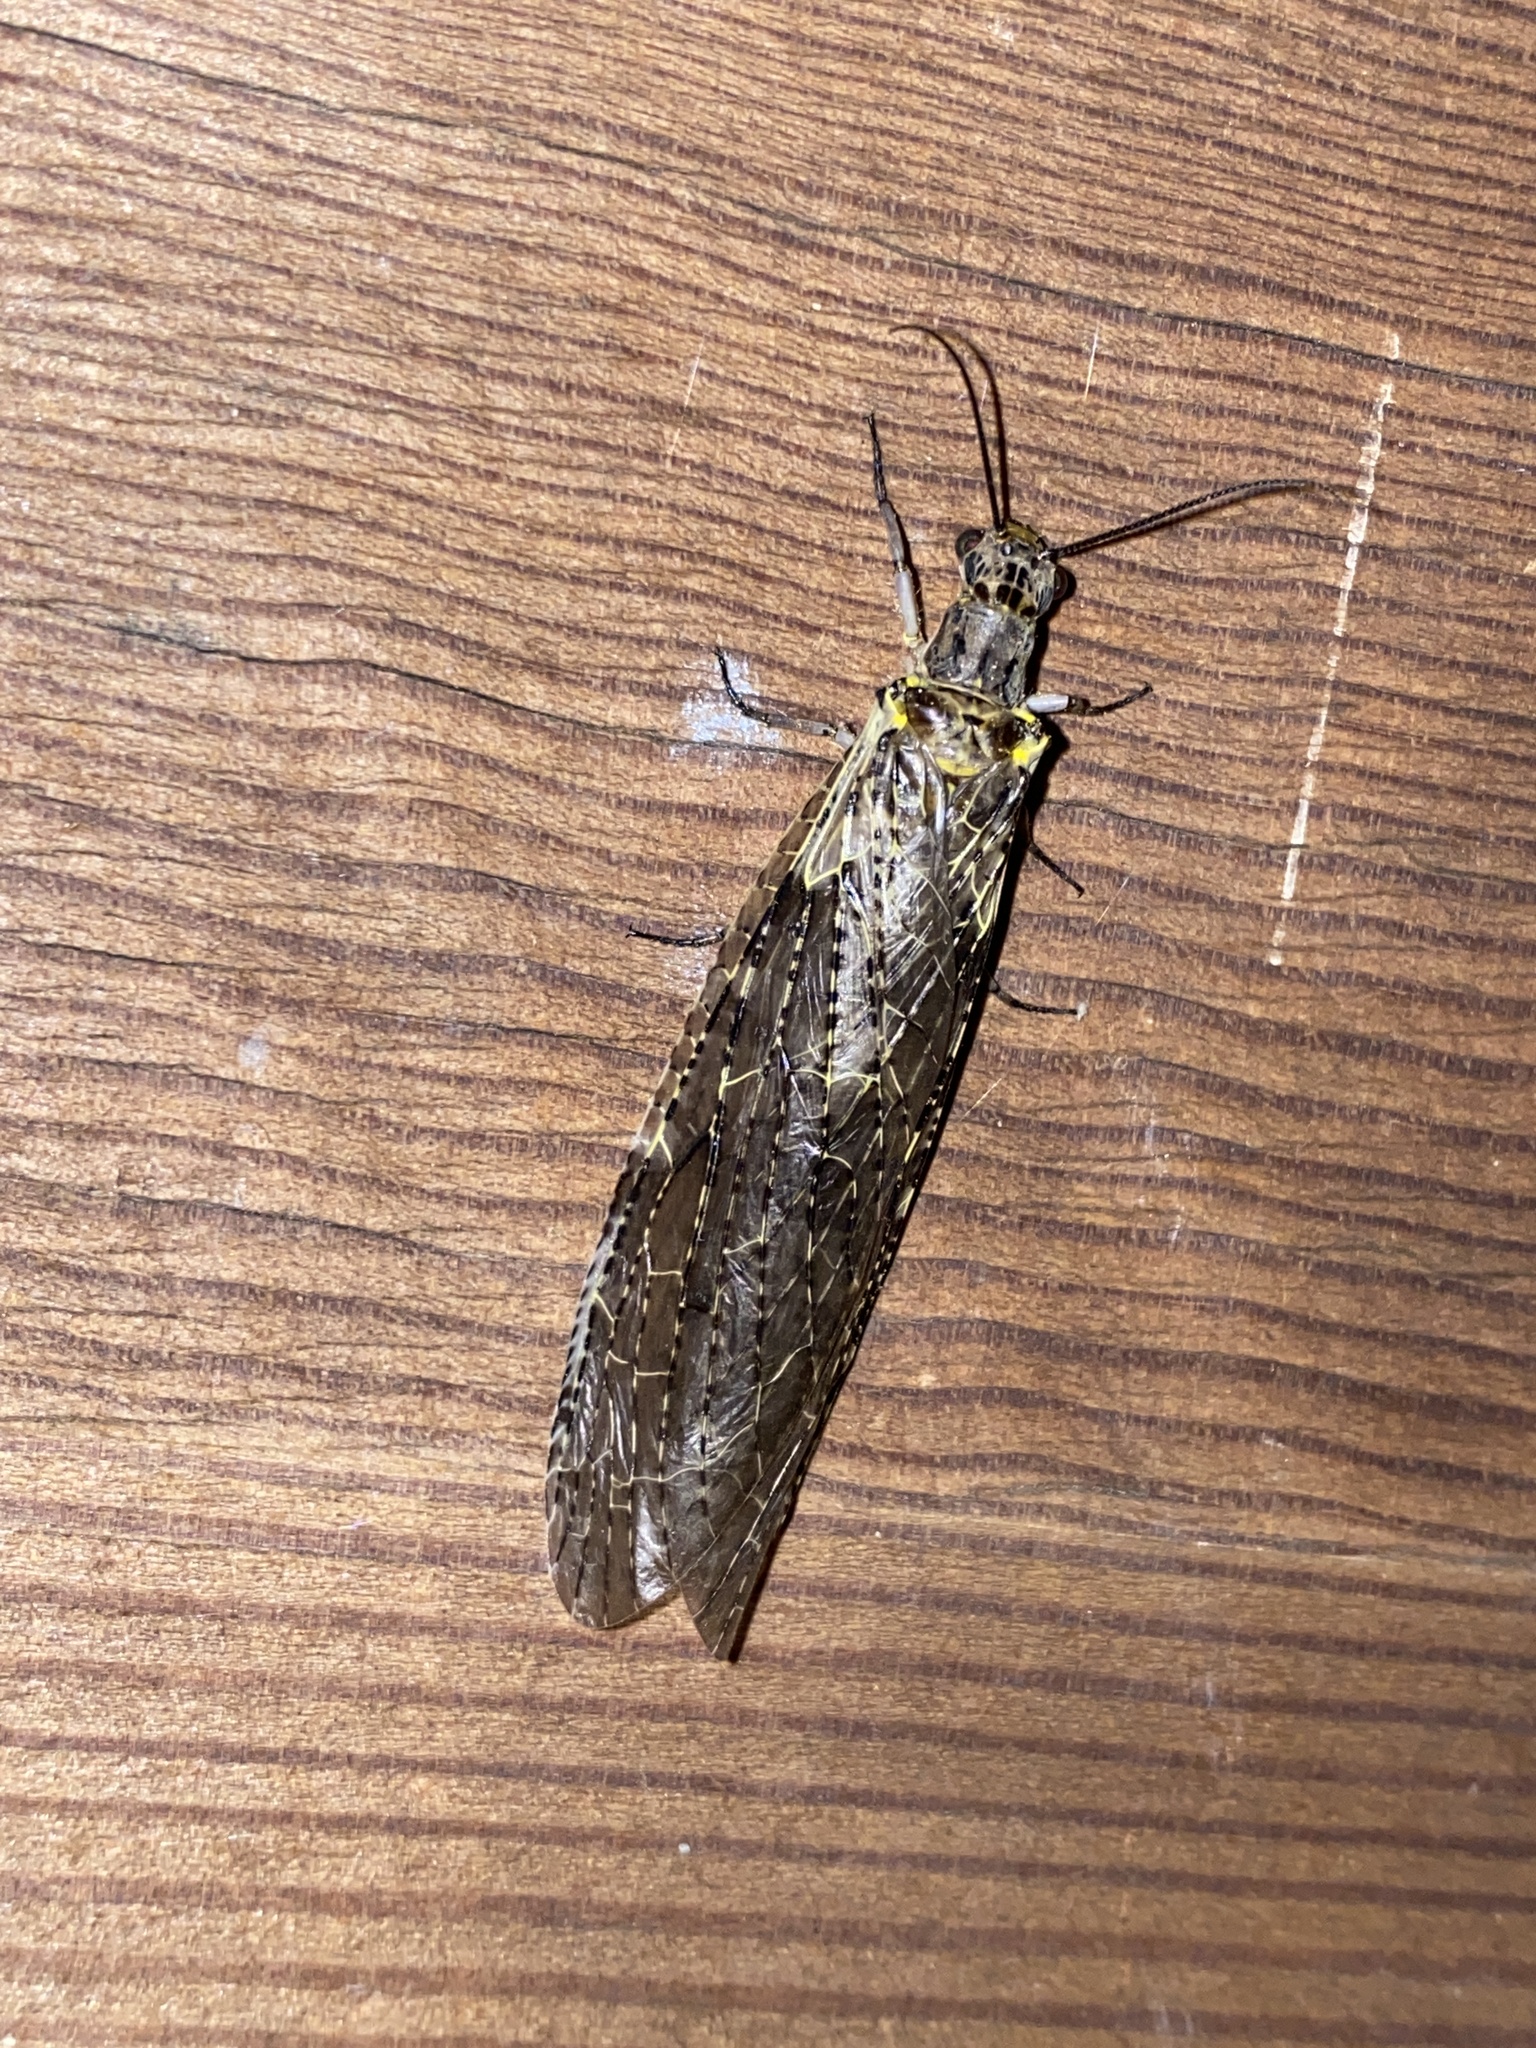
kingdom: Animalia
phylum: Arthropoda
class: Insecta
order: Megaloptera
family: Corydalidae
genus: Chauliodes
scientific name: Chauliodes rastricornis
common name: Spring fishfly
